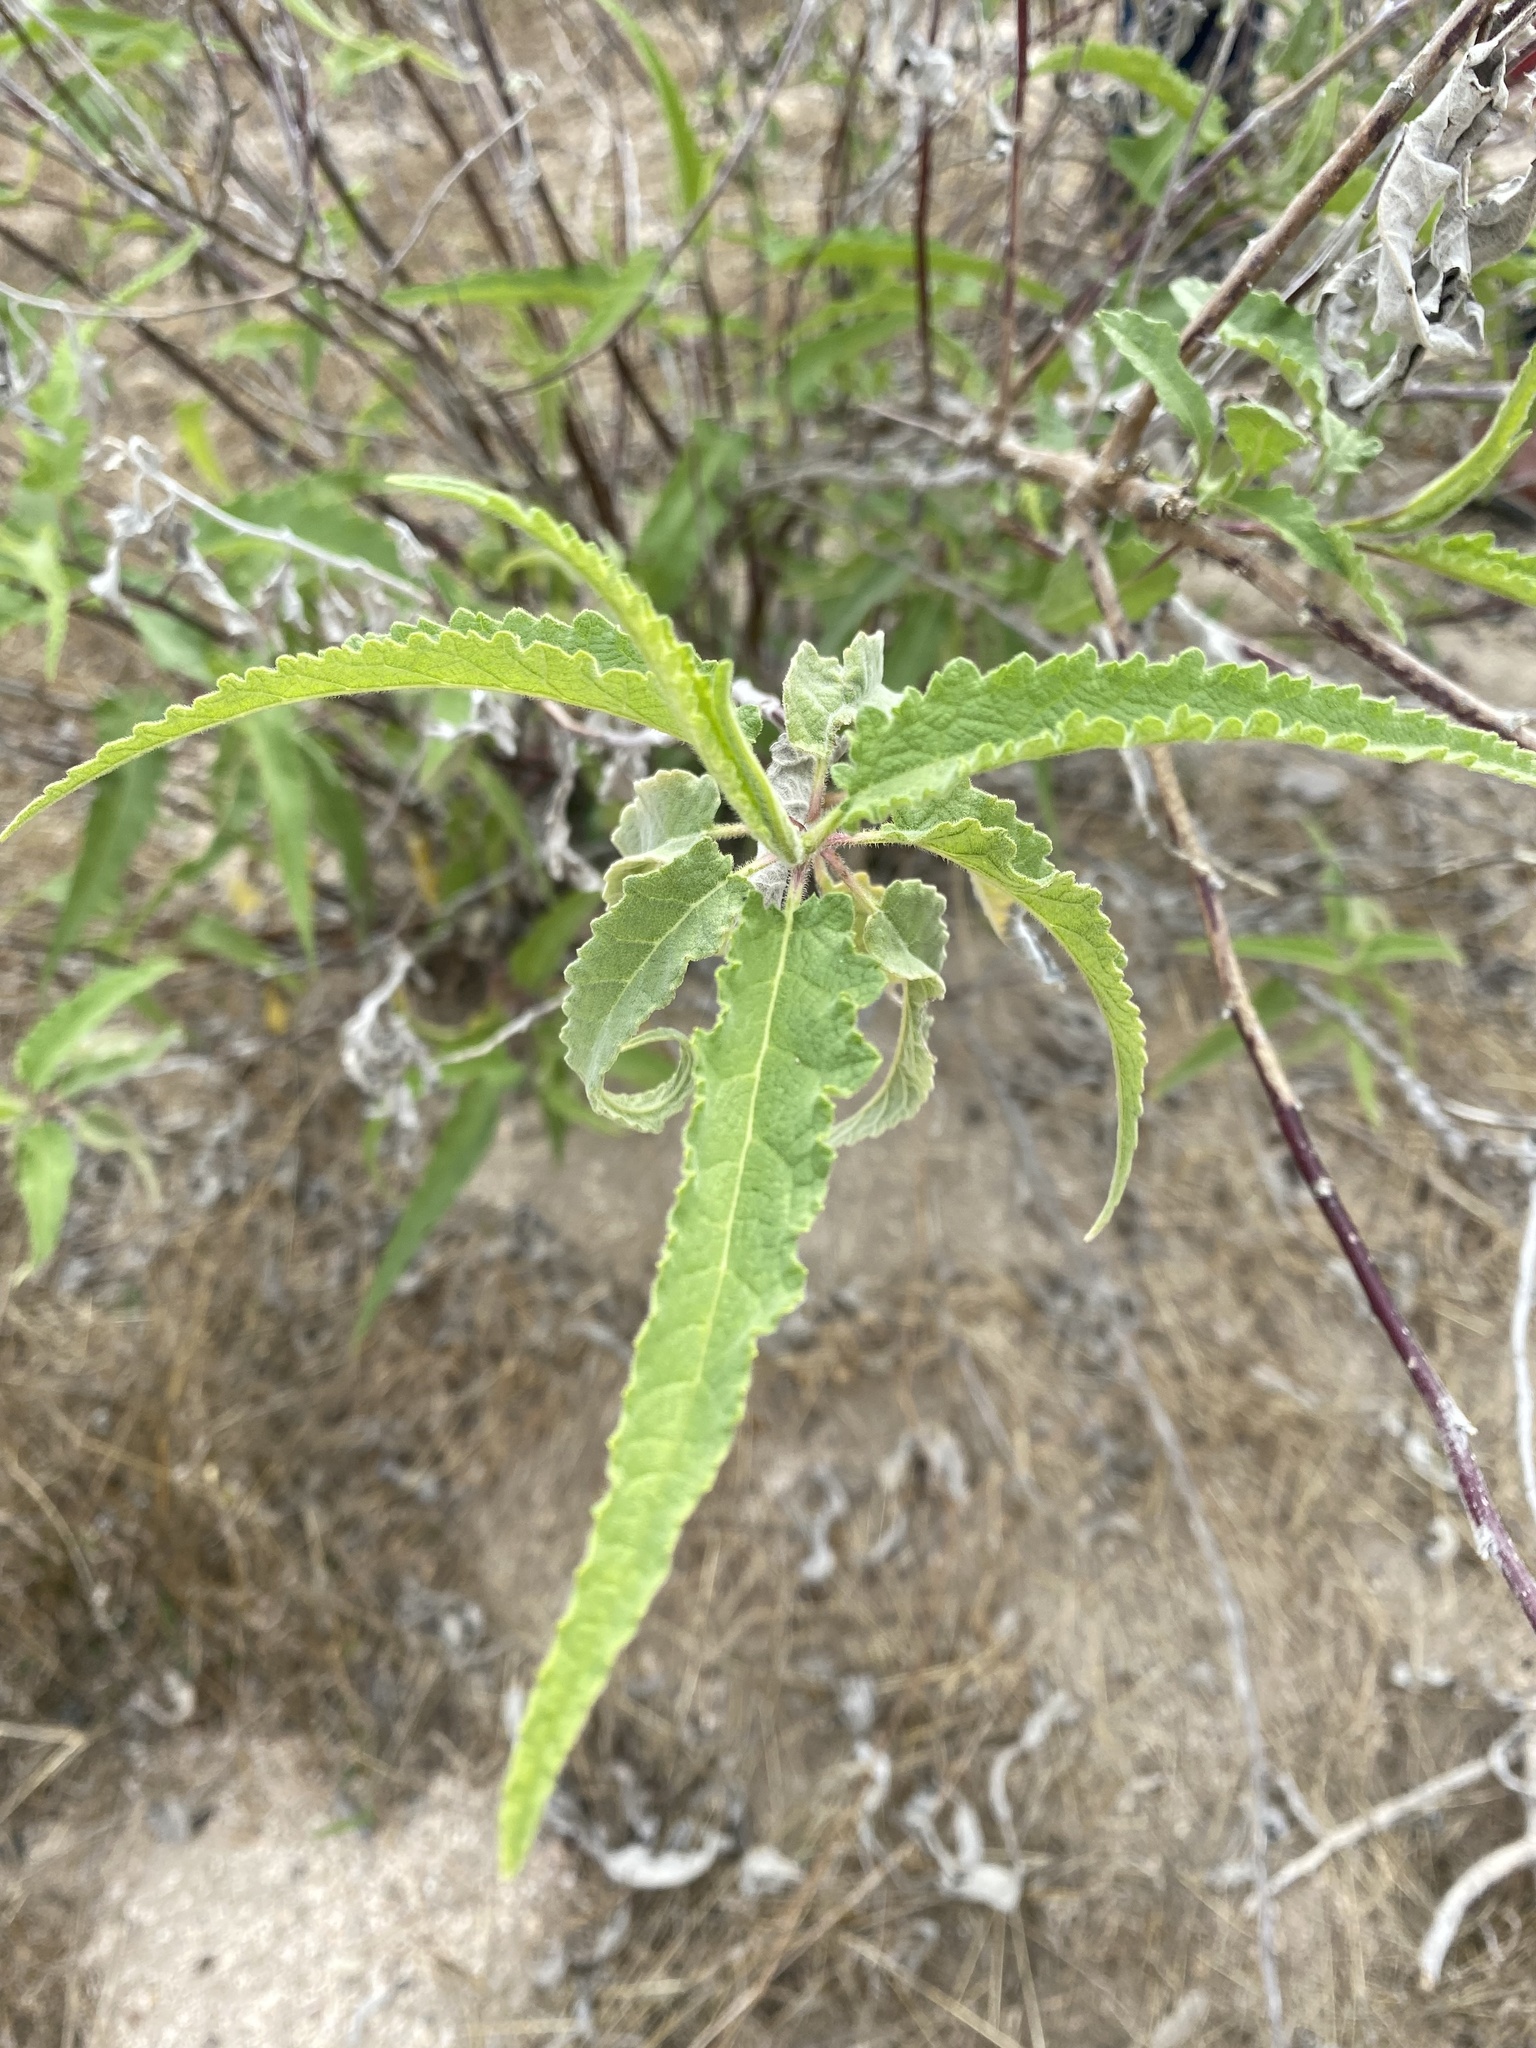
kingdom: Plantae
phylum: Tracheophyta
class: Magnoliopsida
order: Asterales
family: Asteraceae
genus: Ambrosia
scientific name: Ambrosia ambrosioides
